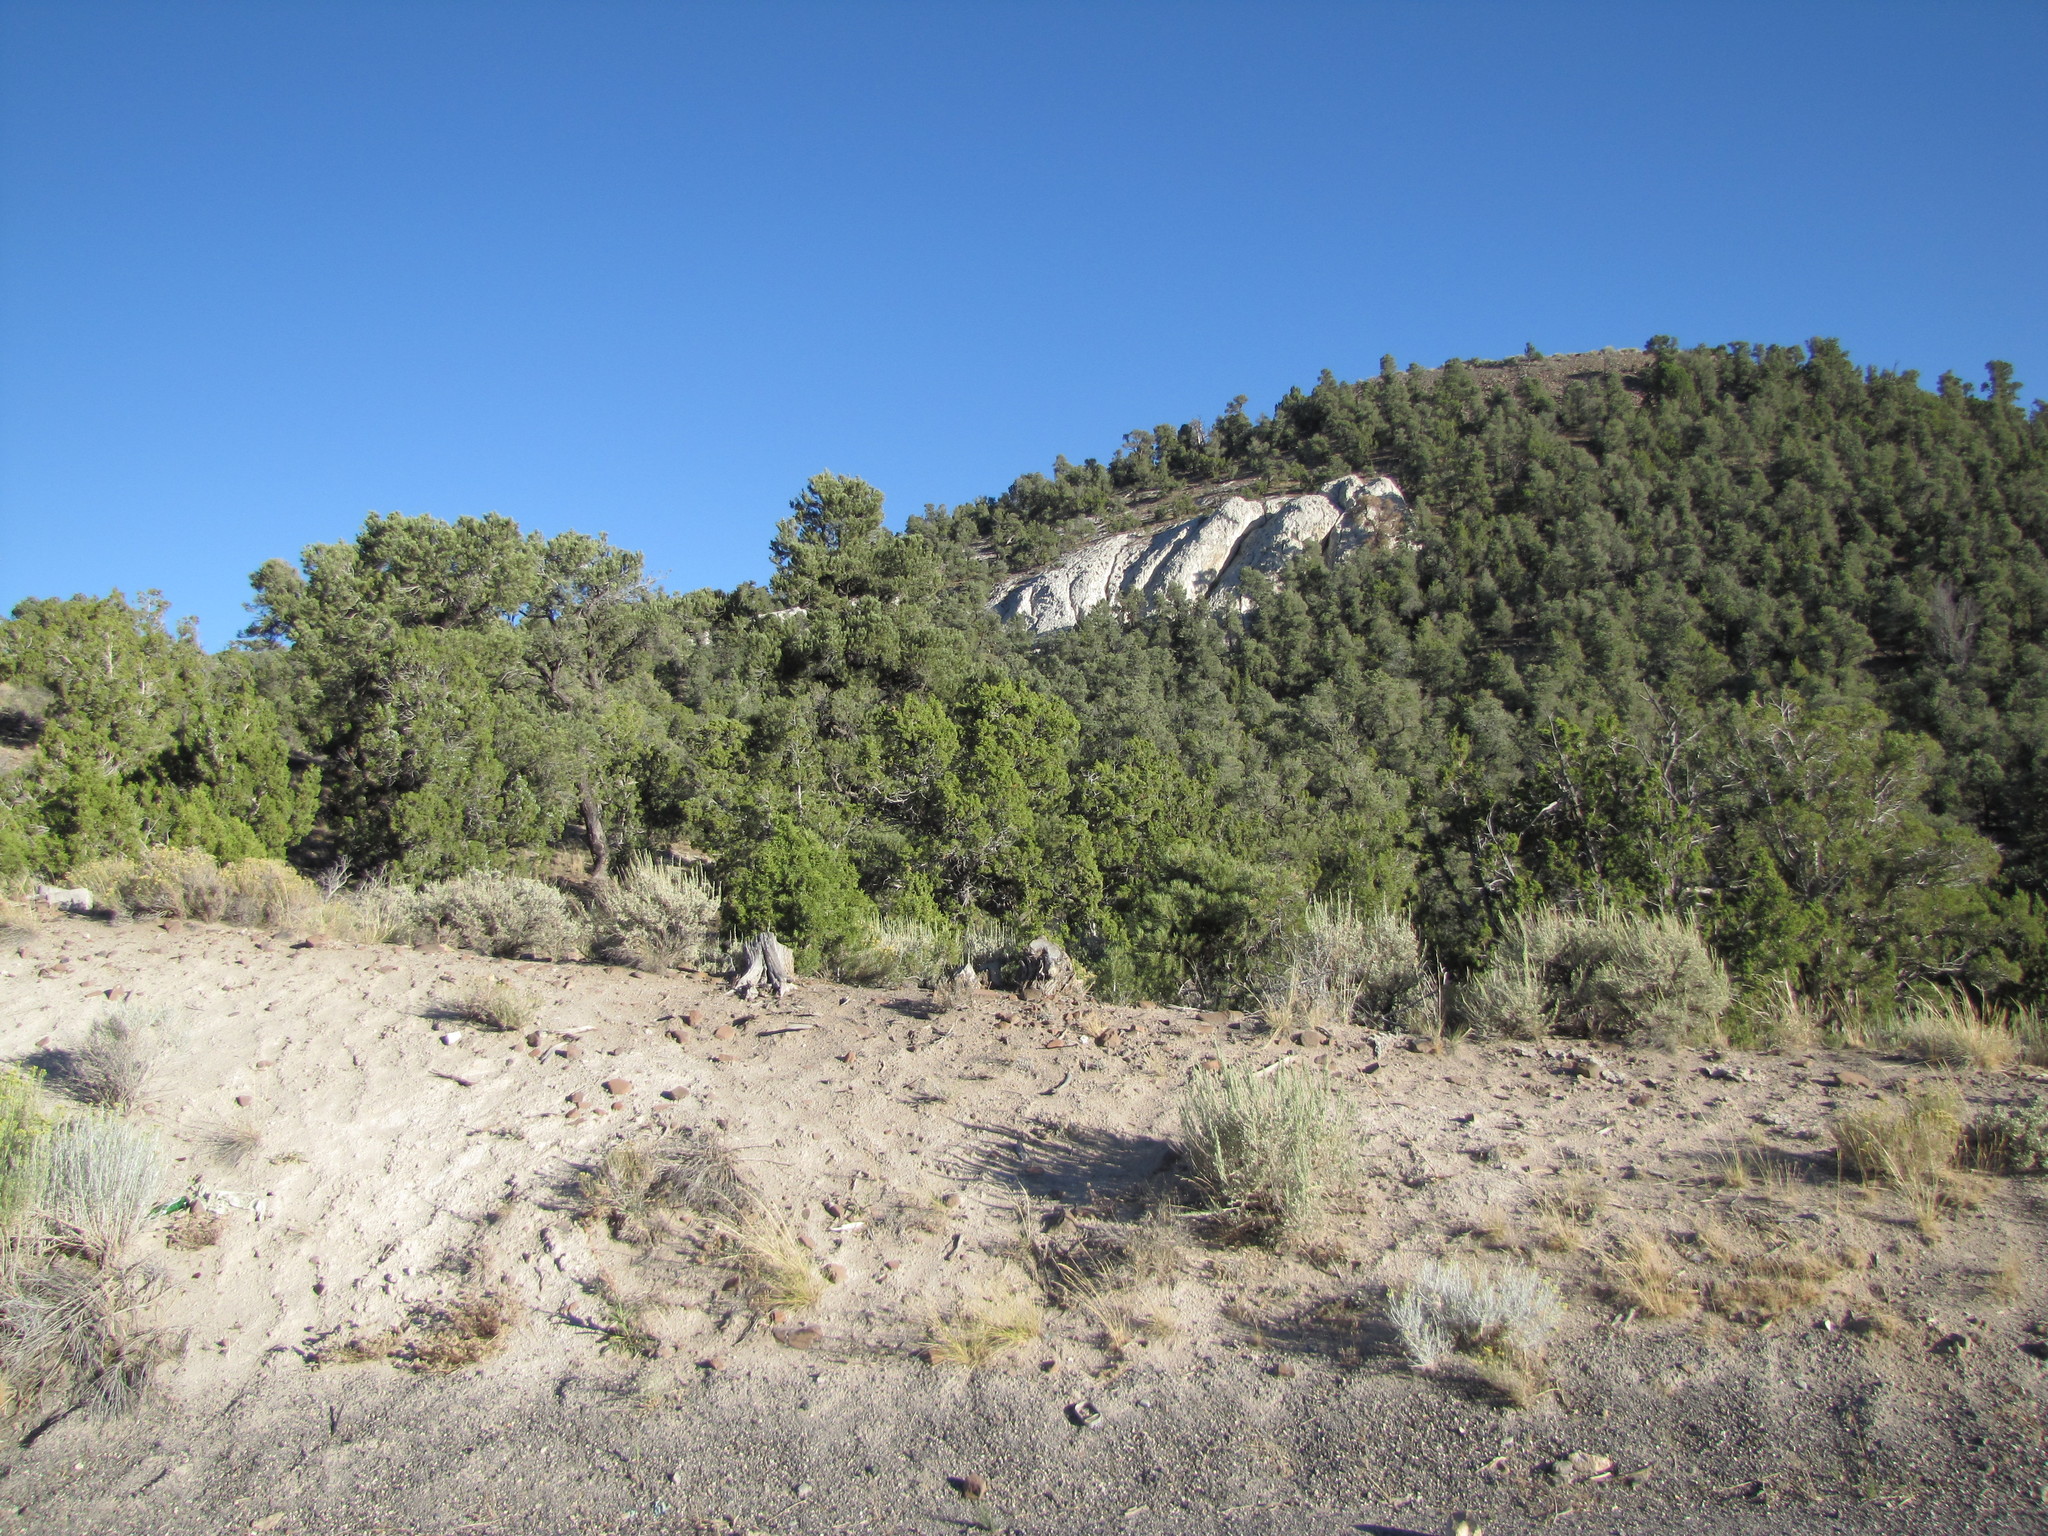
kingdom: Plantae
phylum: Tracheophyta
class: Pinopsida
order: Pinales
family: Cupressaceae
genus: Juniperus
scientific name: Juniperus osteosperma
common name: Utah juniper
